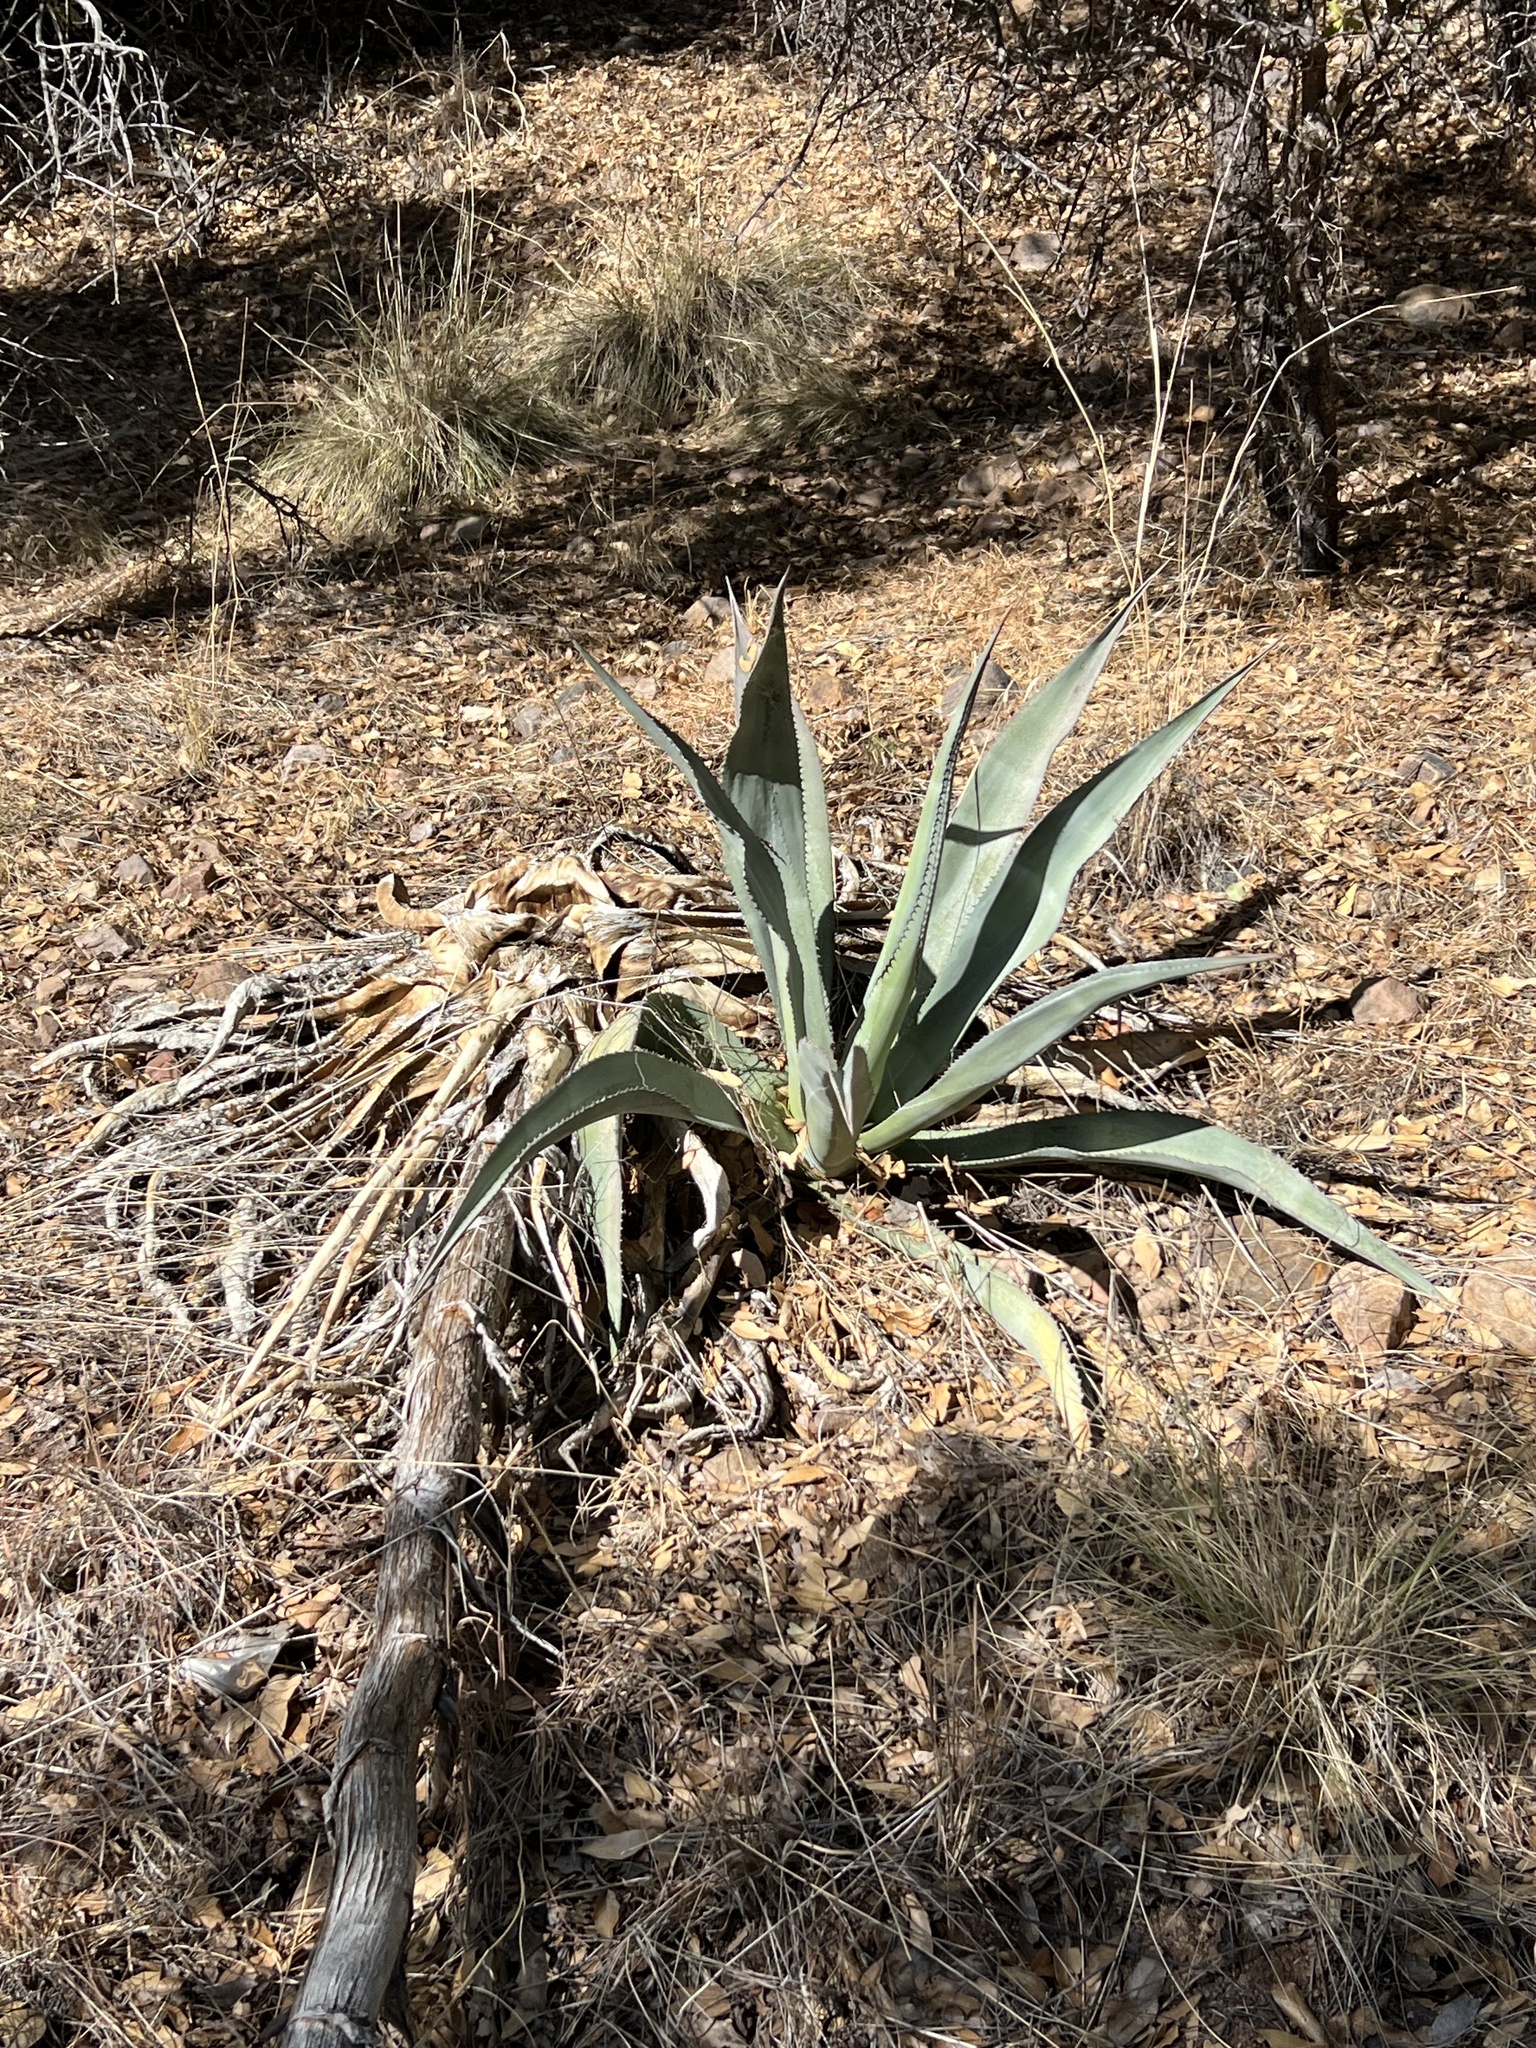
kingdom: Plantae
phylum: Tracheophyta
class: Liliopsida
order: Asparagales
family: Asparagaceae
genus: Agave
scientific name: Agave palmeri
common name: Palmer agave
